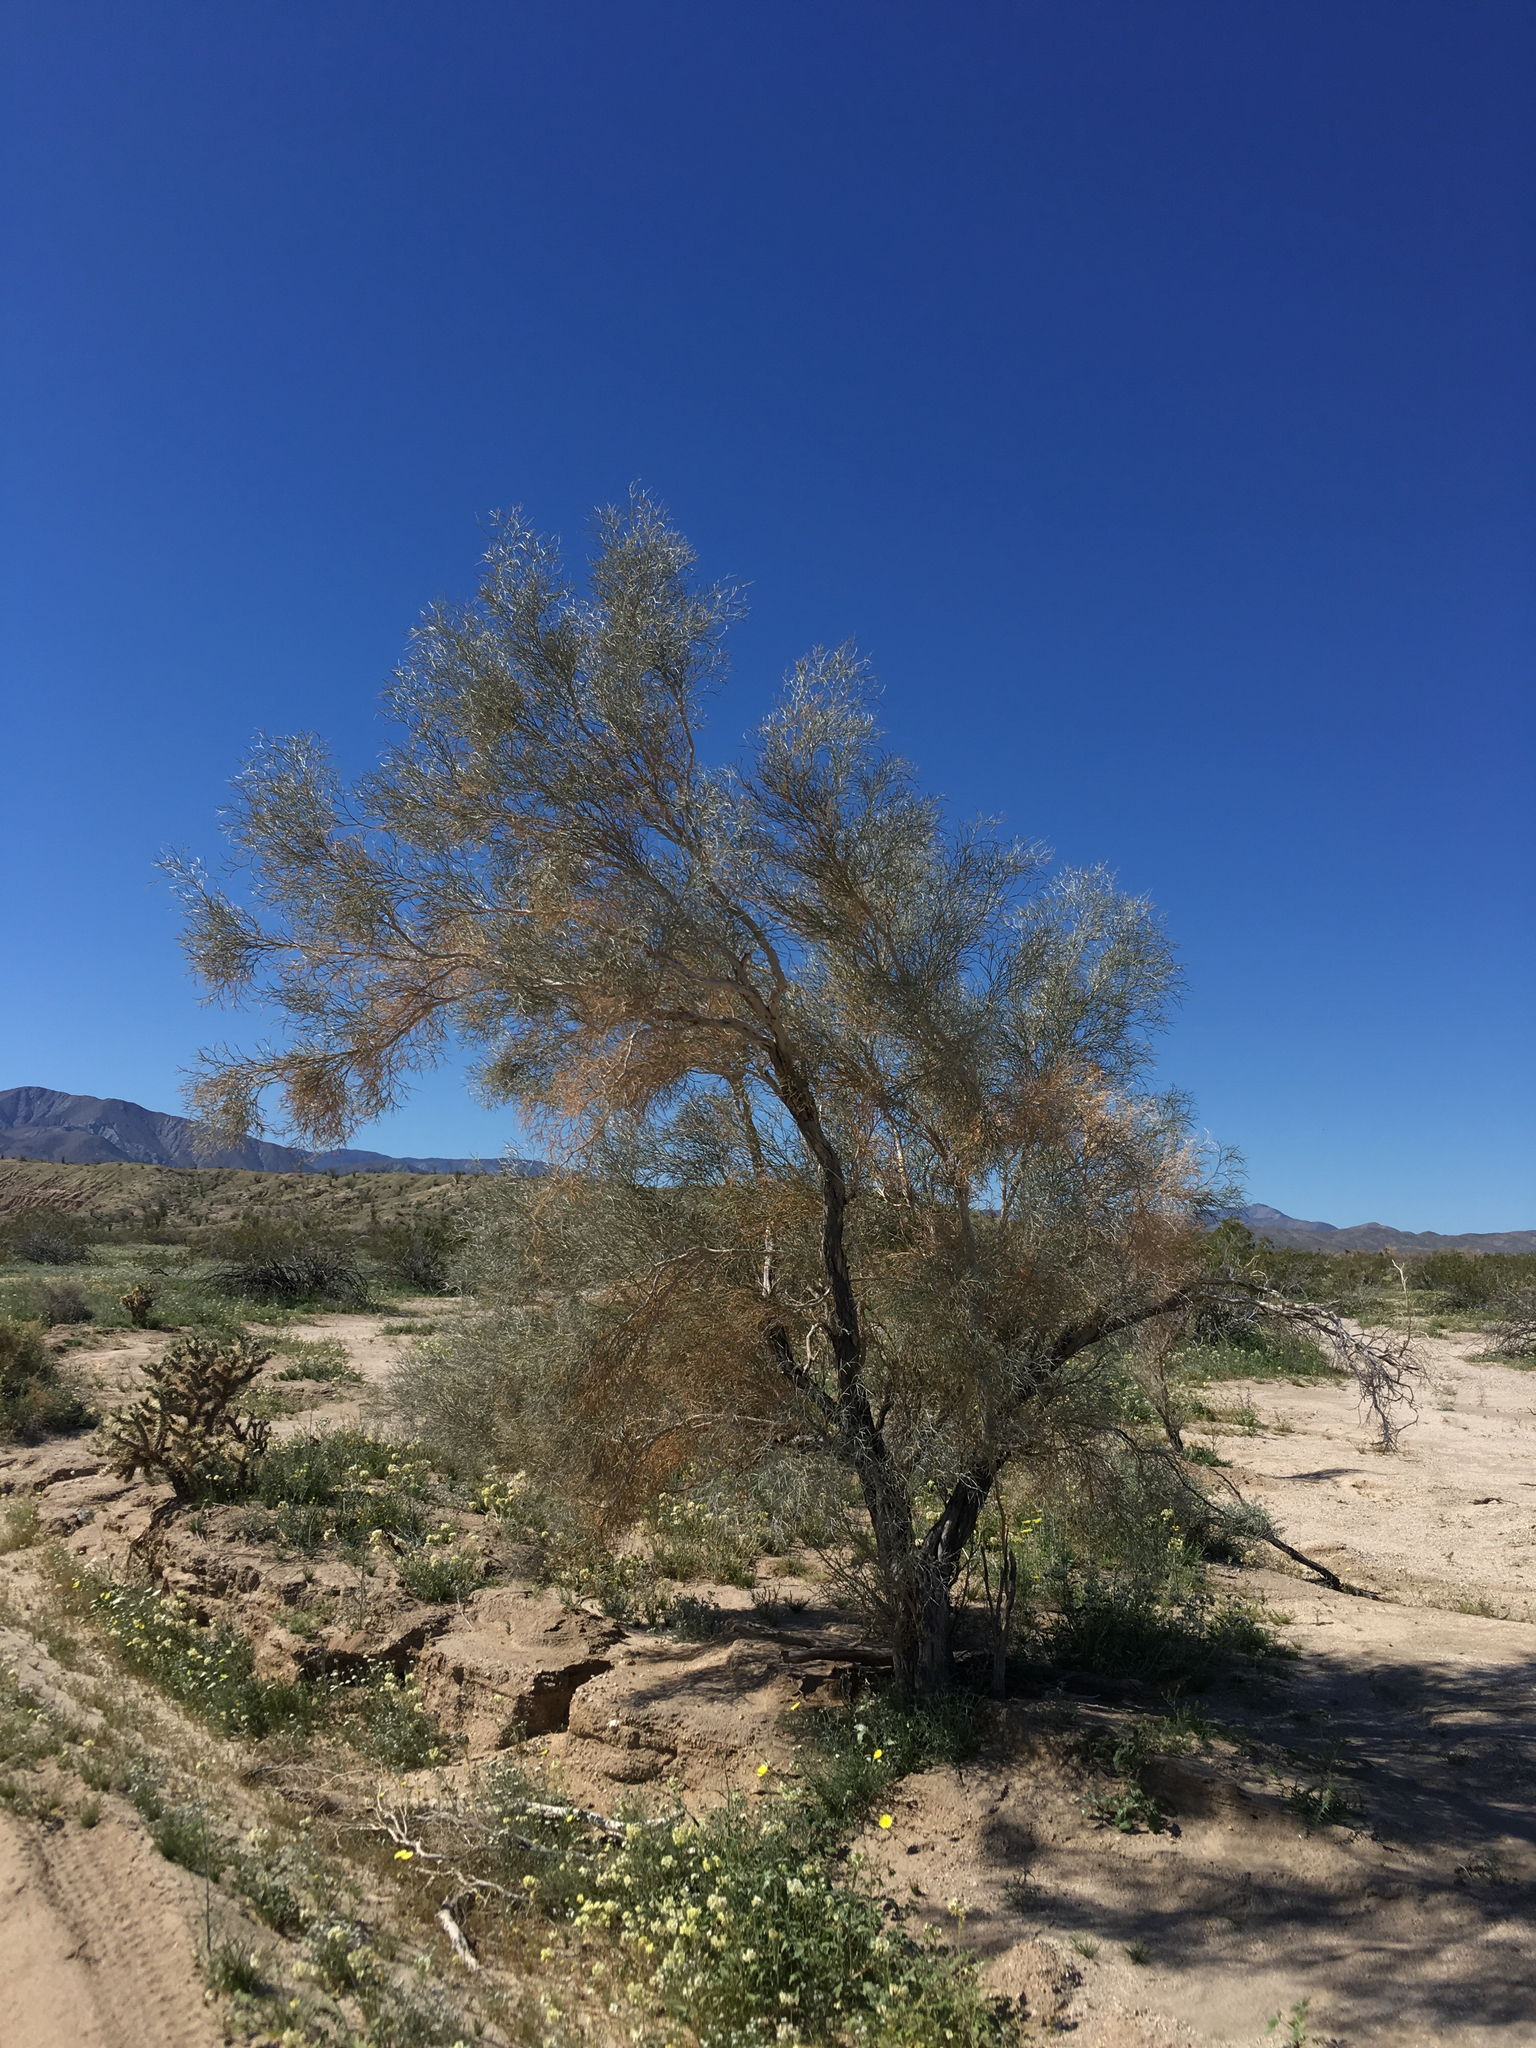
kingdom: Plantae
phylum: Tracheophyta
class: Magnoliopsida
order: Fabales
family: Fabaceae
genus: Psorothamnus
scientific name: Psorothamnus spinosus
